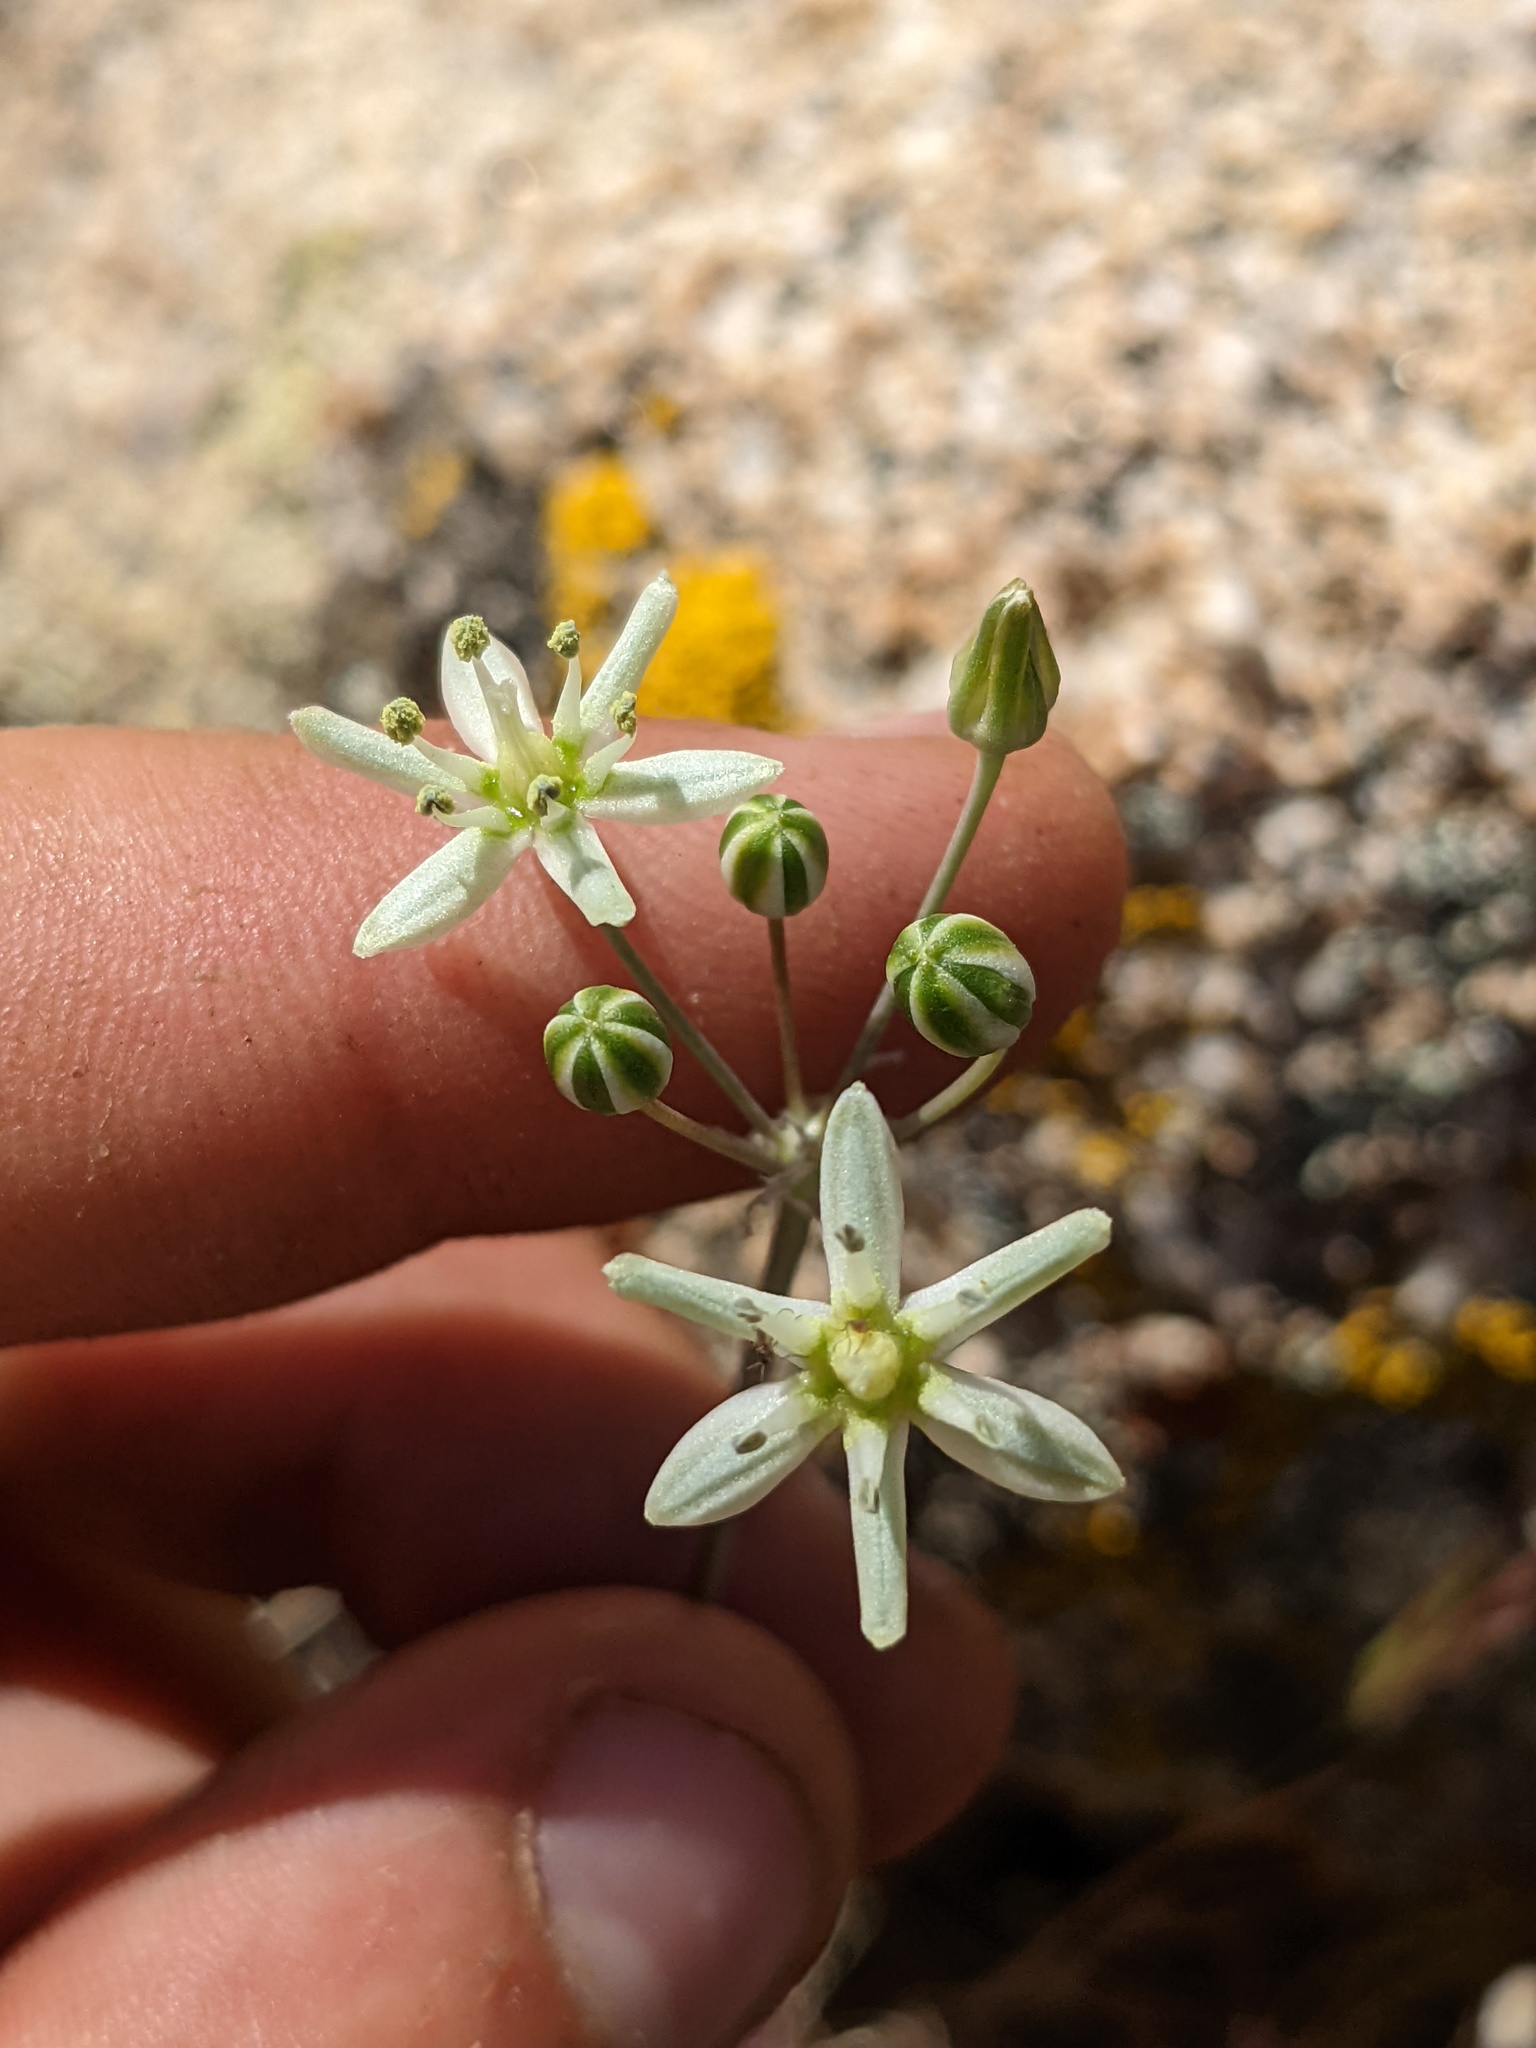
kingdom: Plantae
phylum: Tracheophyta
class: Liliopsida
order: Asparagales
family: Asparagaceae
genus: Muilla
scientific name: Muilla maritima
